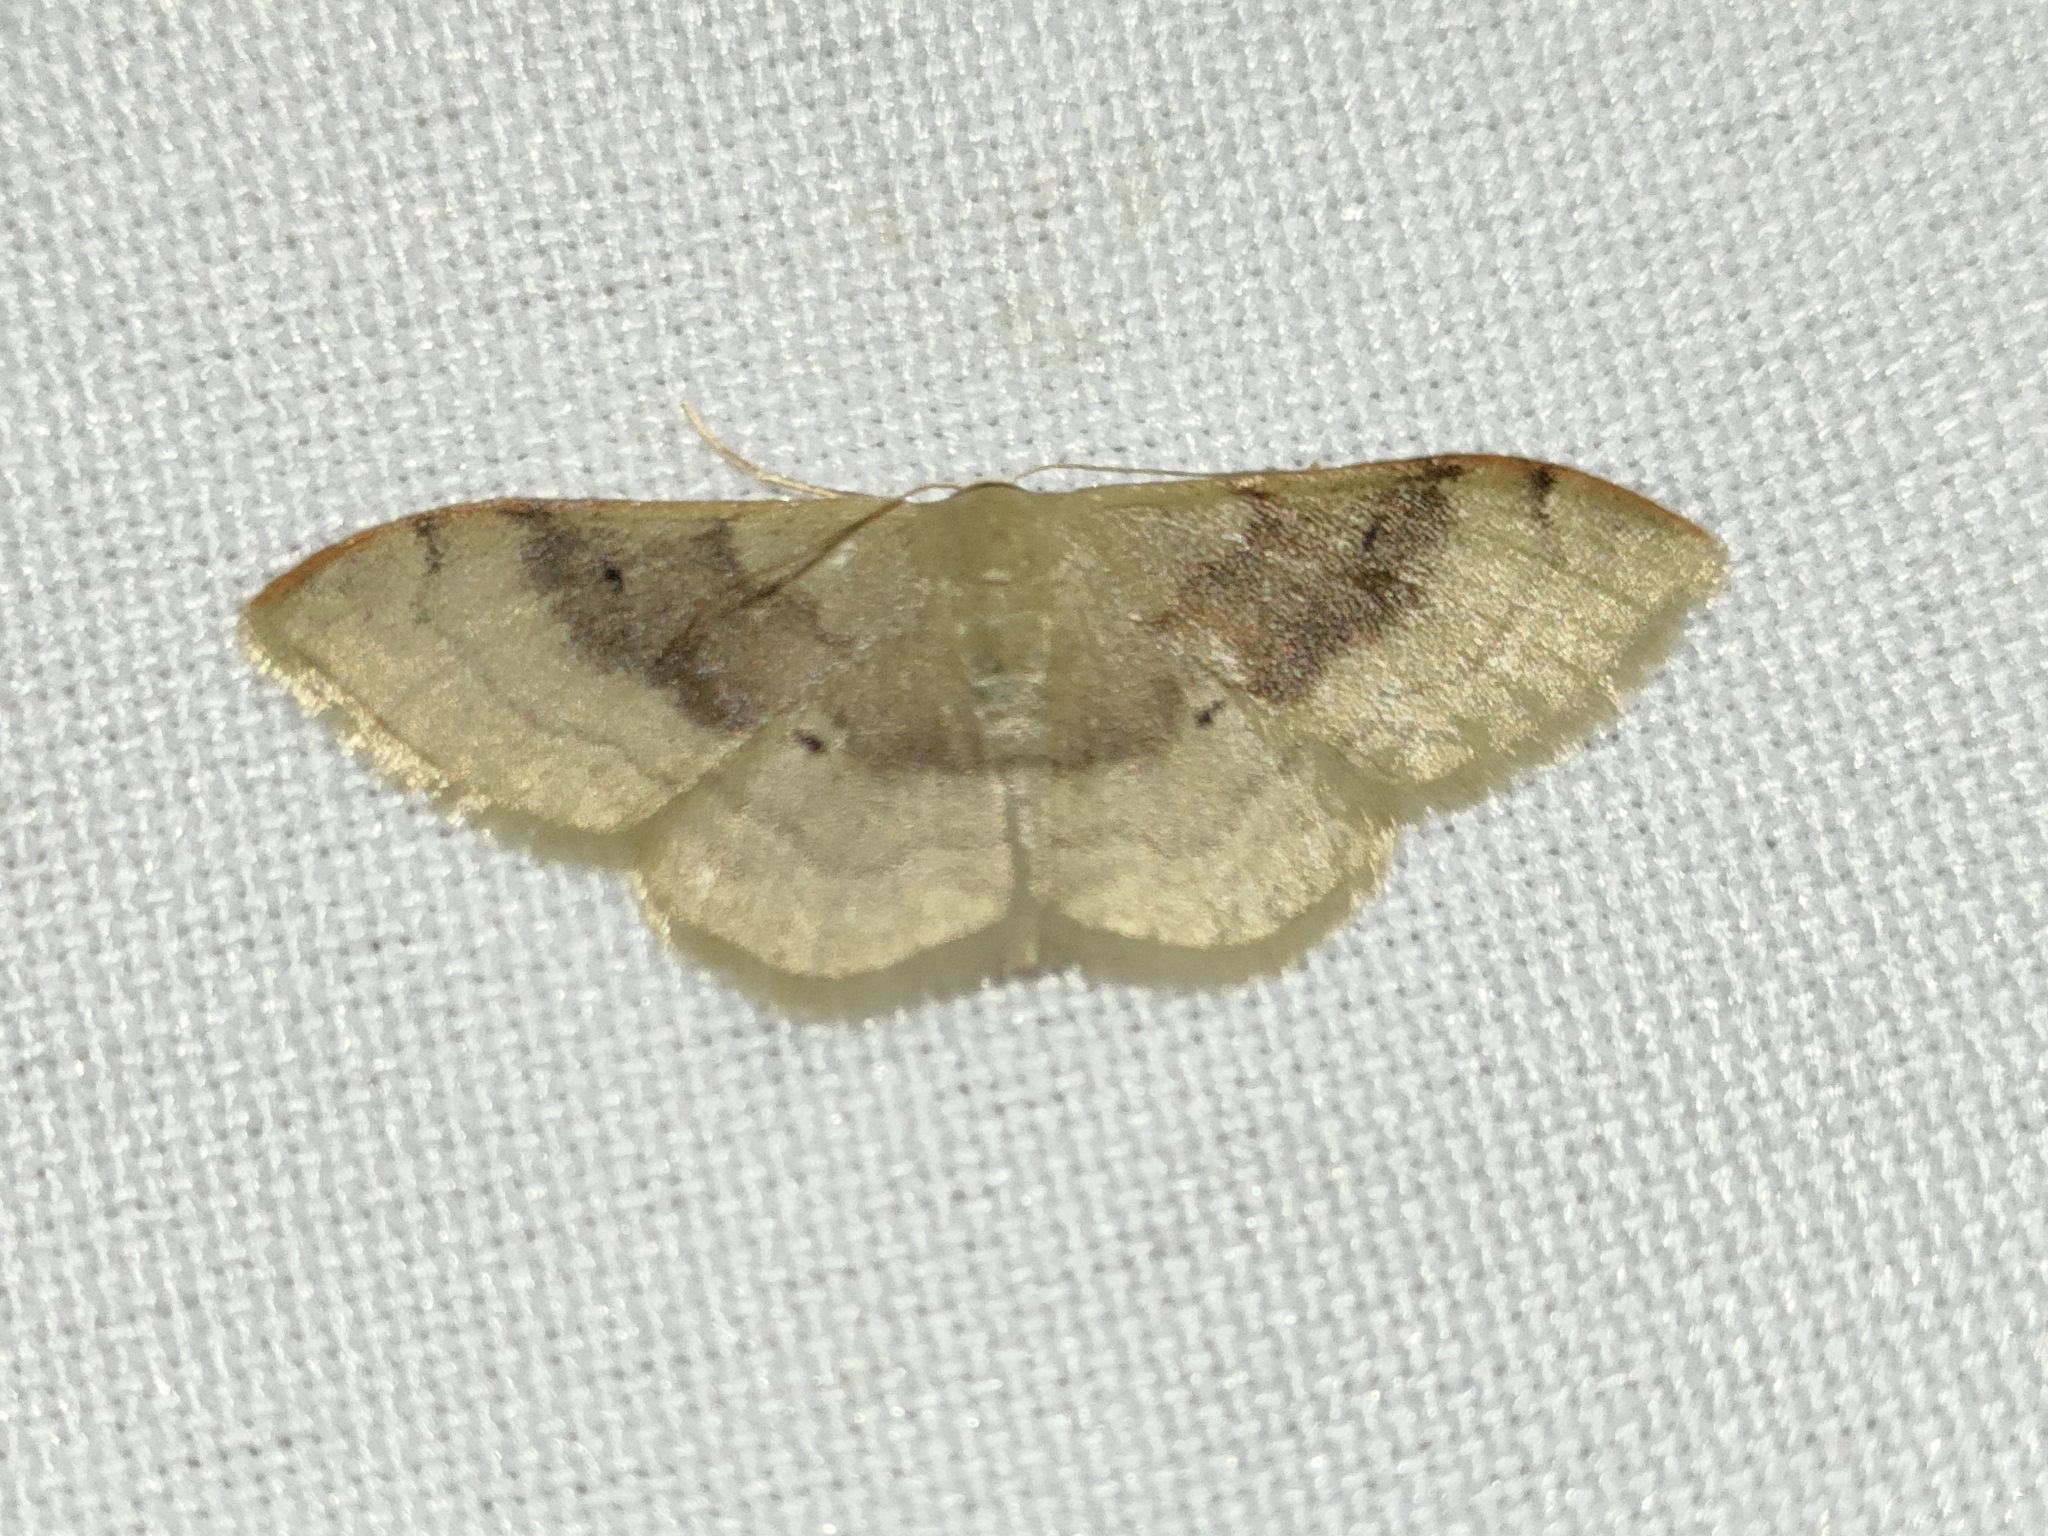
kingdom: Animalia
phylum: Arthropoda
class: Insecta
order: Lepidoptera
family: Geometridae
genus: Idaea
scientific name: Idaea degeneraria
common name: Portland ribbon wave
